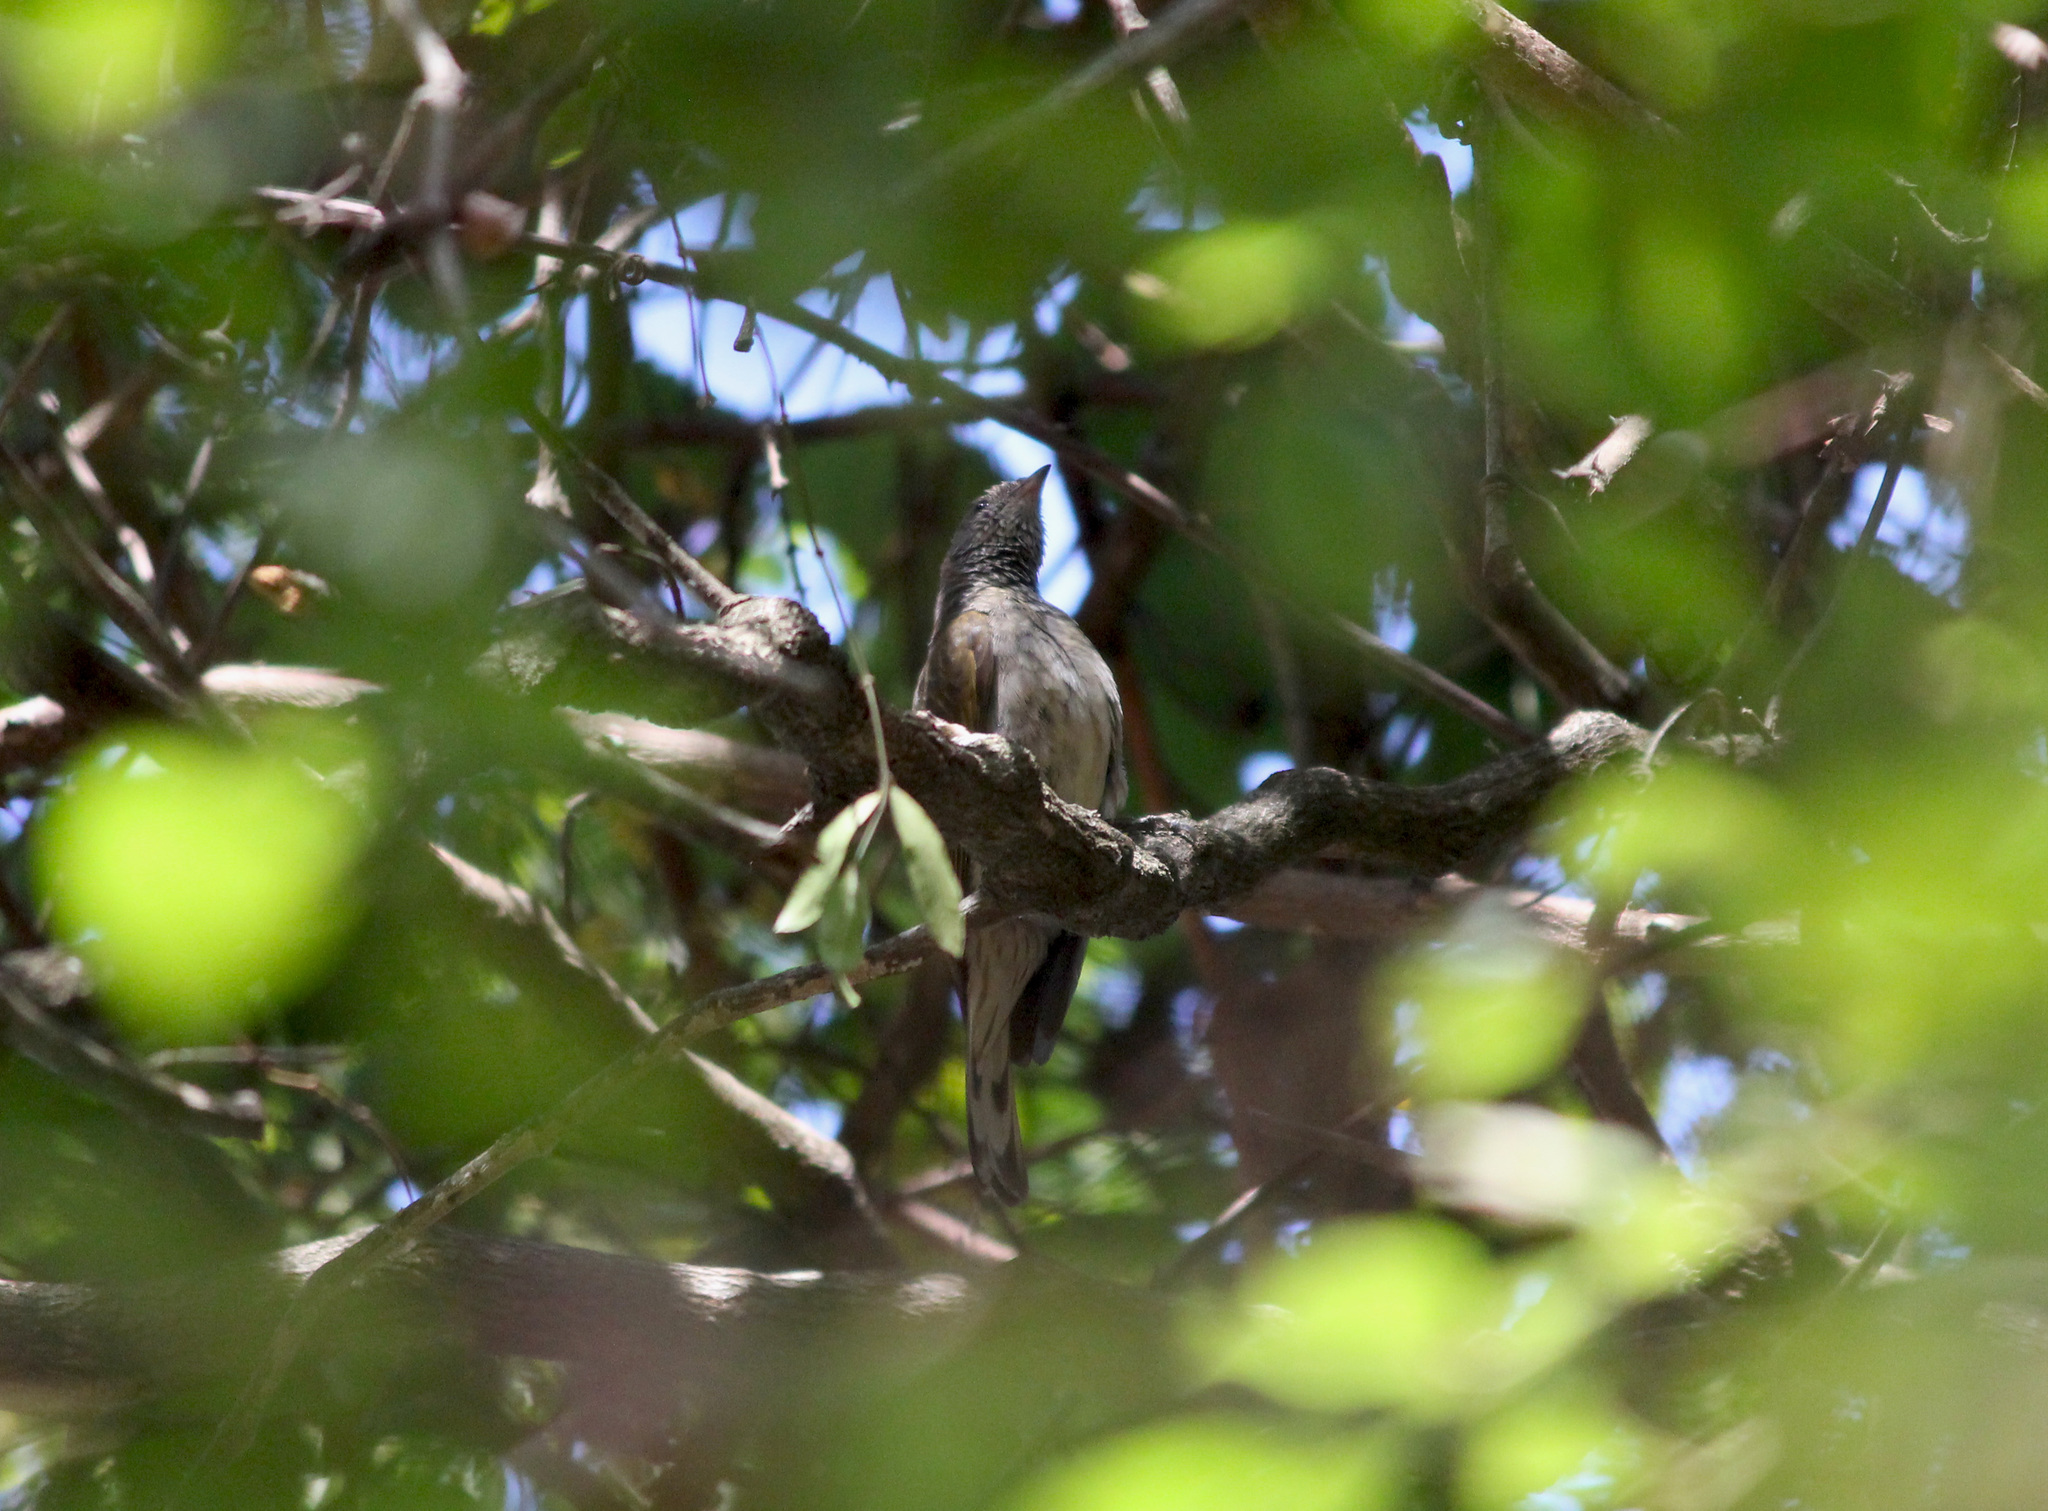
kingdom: Animalia
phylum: Chordata
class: Aves
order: Piciformes
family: Indicatoridae
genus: Indicator
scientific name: Indicator variegatus
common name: Scaly-throated honeyguide
